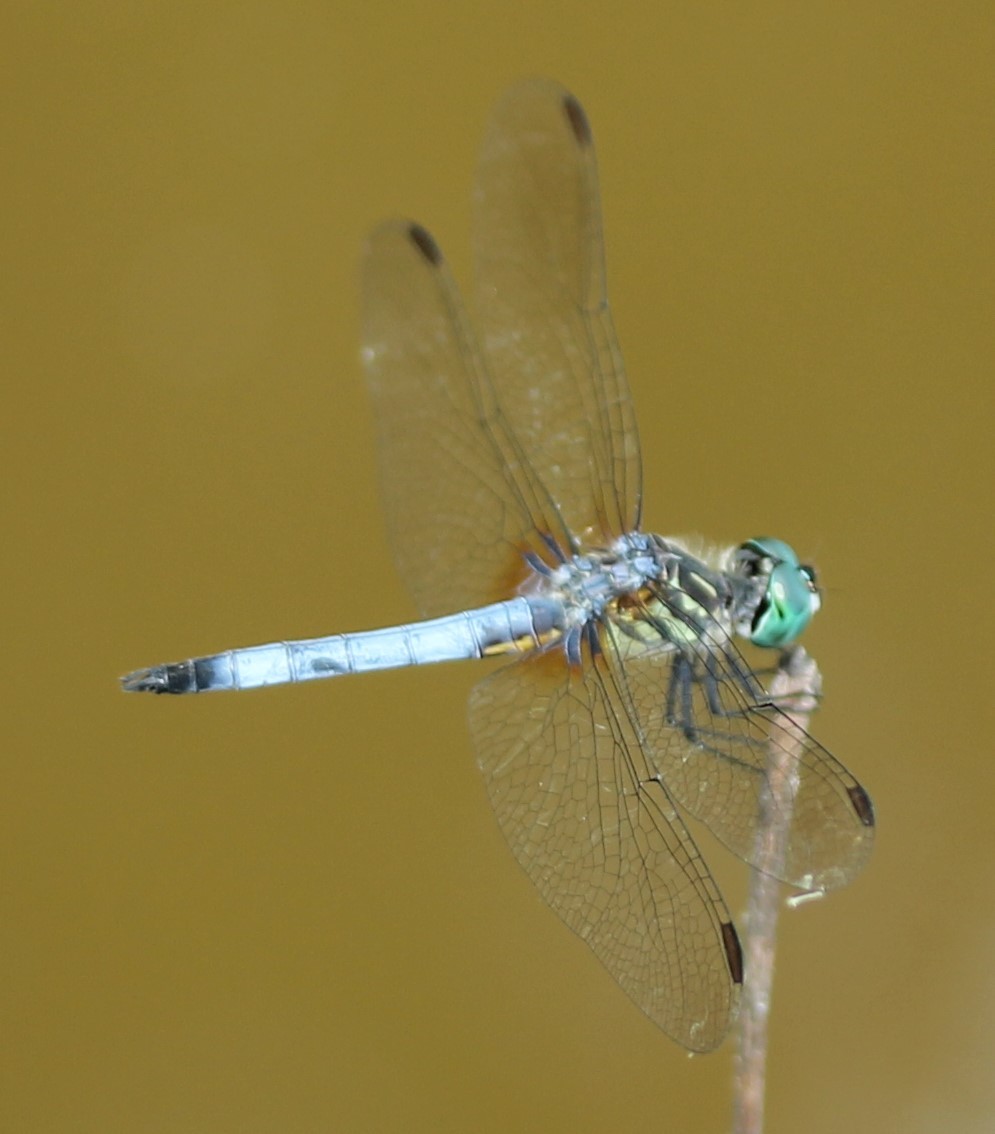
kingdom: Animalia
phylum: Arthropoda
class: Insecta
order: Odonata
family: Libellulidae
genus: Pachydiplax
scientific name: Pachydiplax longipennis
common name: Blue dasher
